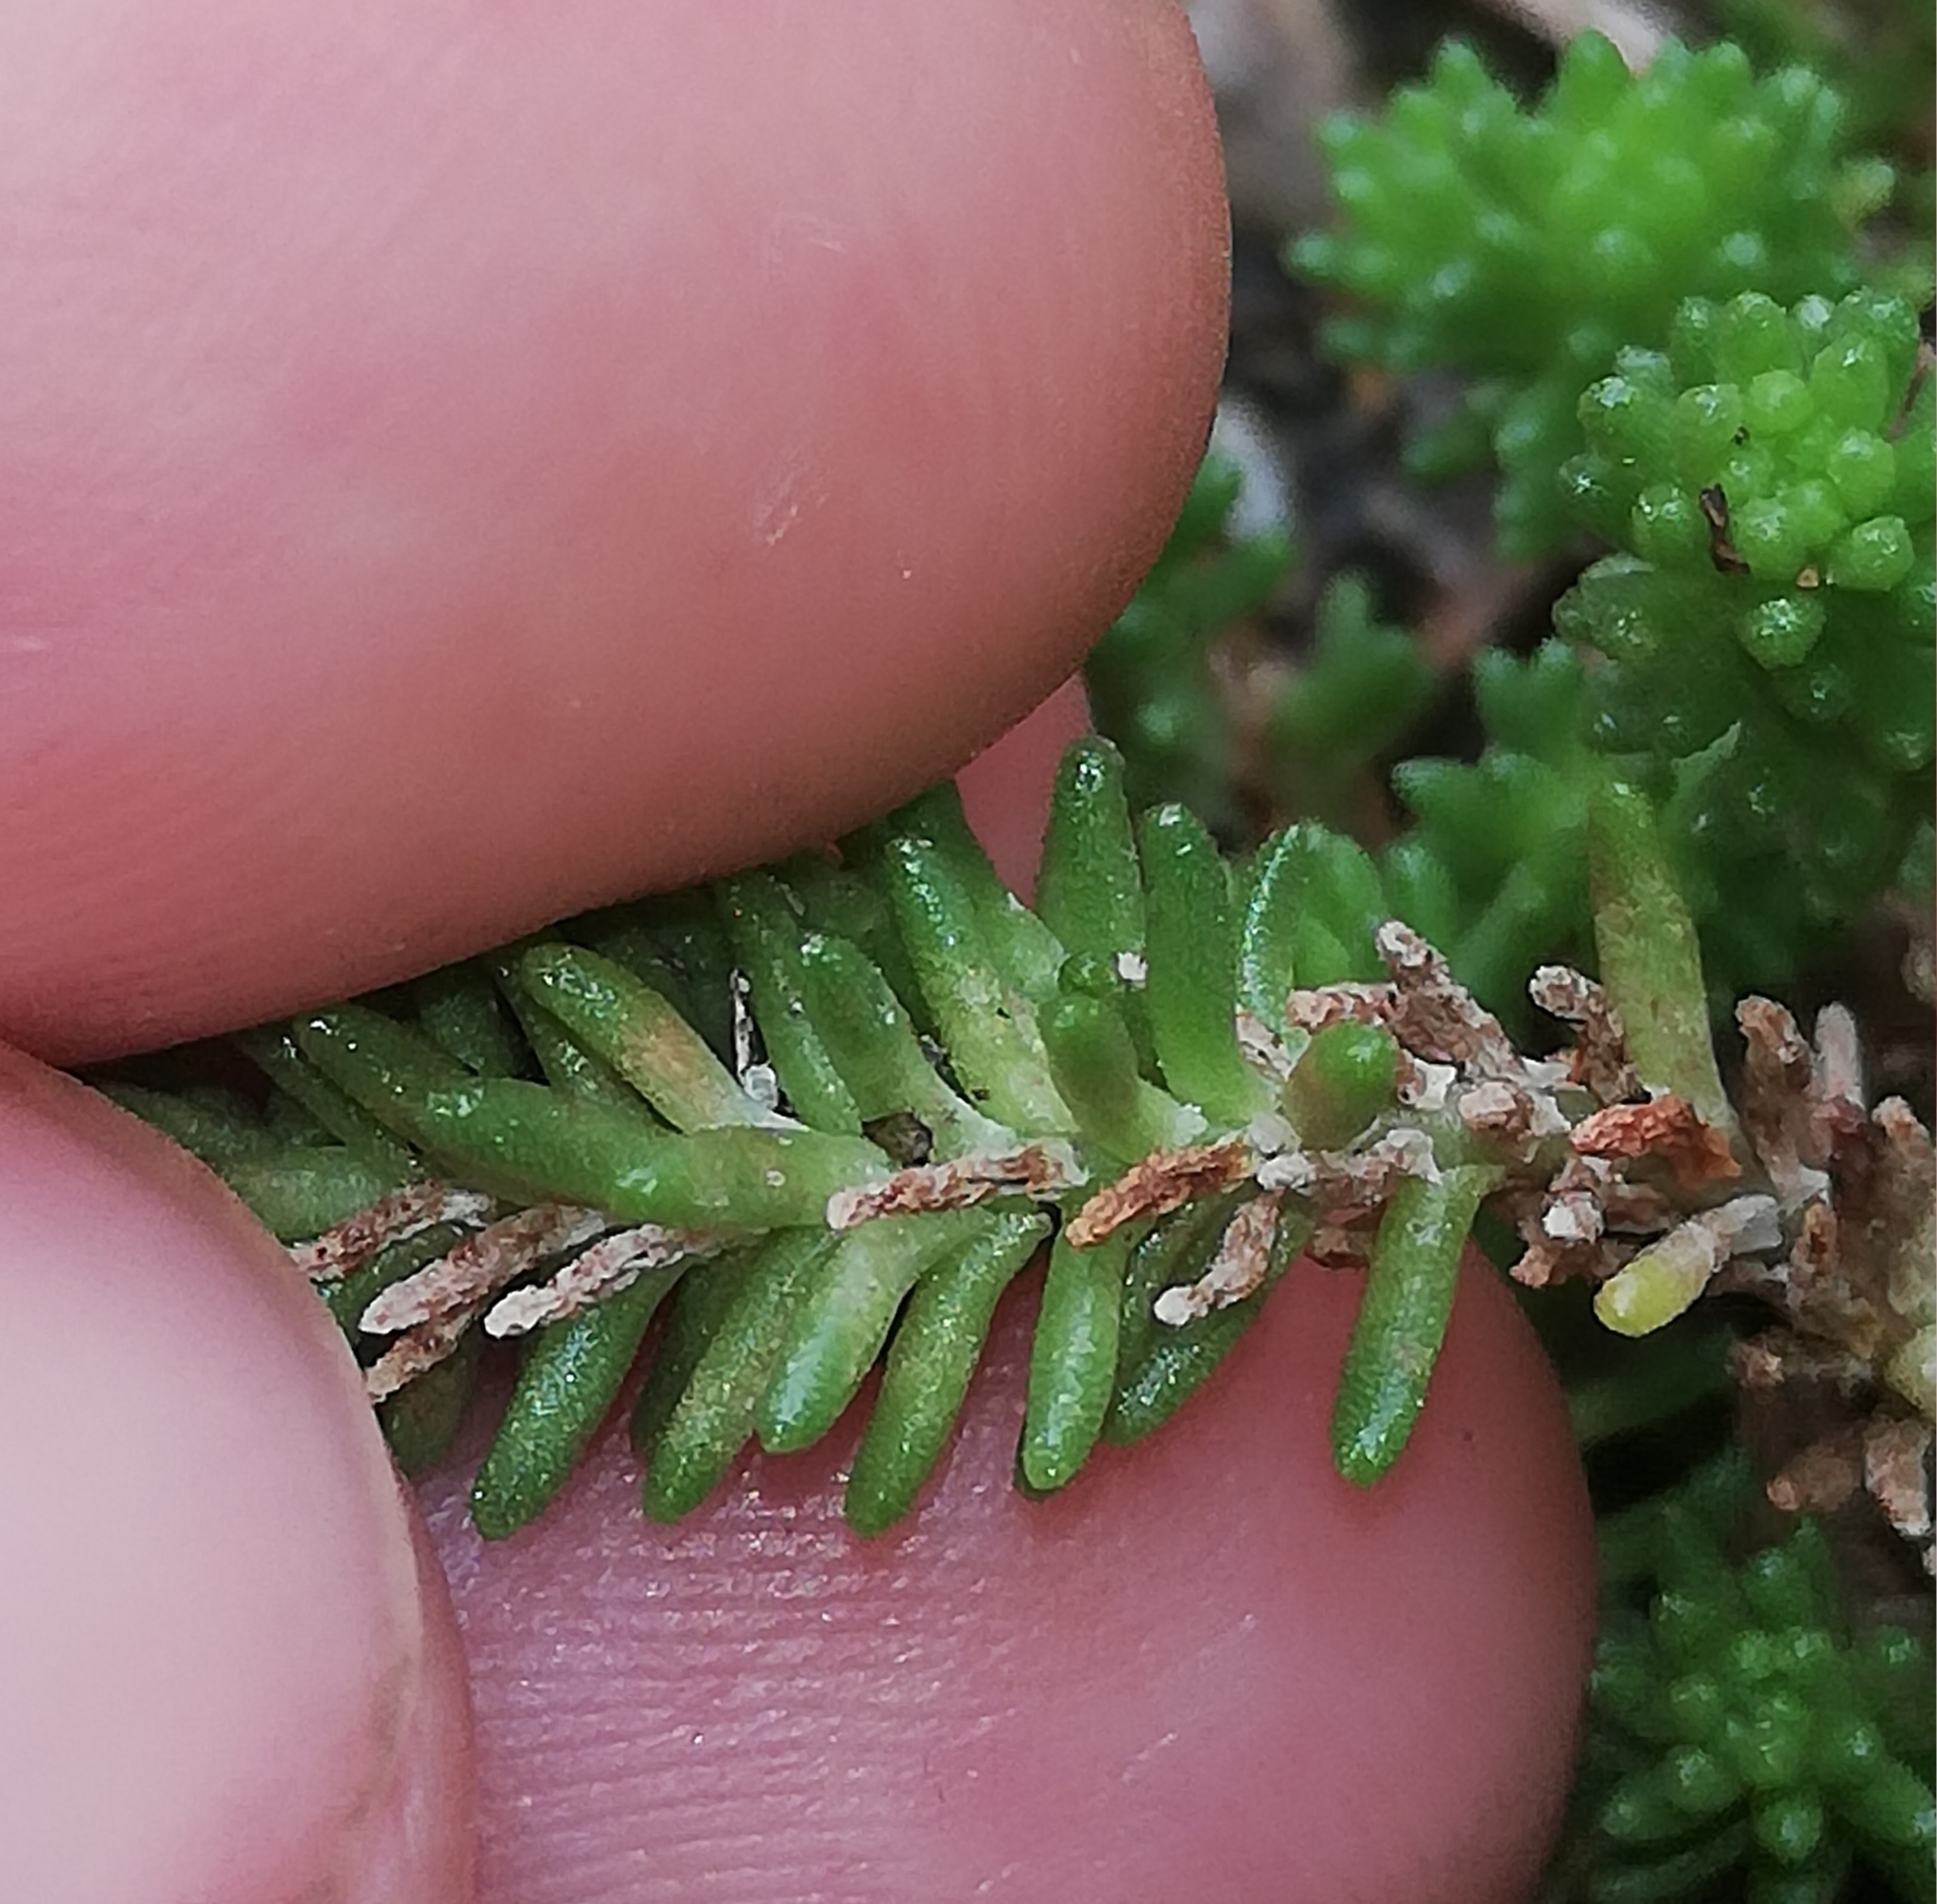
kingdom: Plantae
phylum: Tracheophyta
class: Magnoliopsida
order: Saxifragales
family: Crassulaceae
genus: Sedum
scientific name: Sedum sexangulare
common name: Tasteless stonecrop
